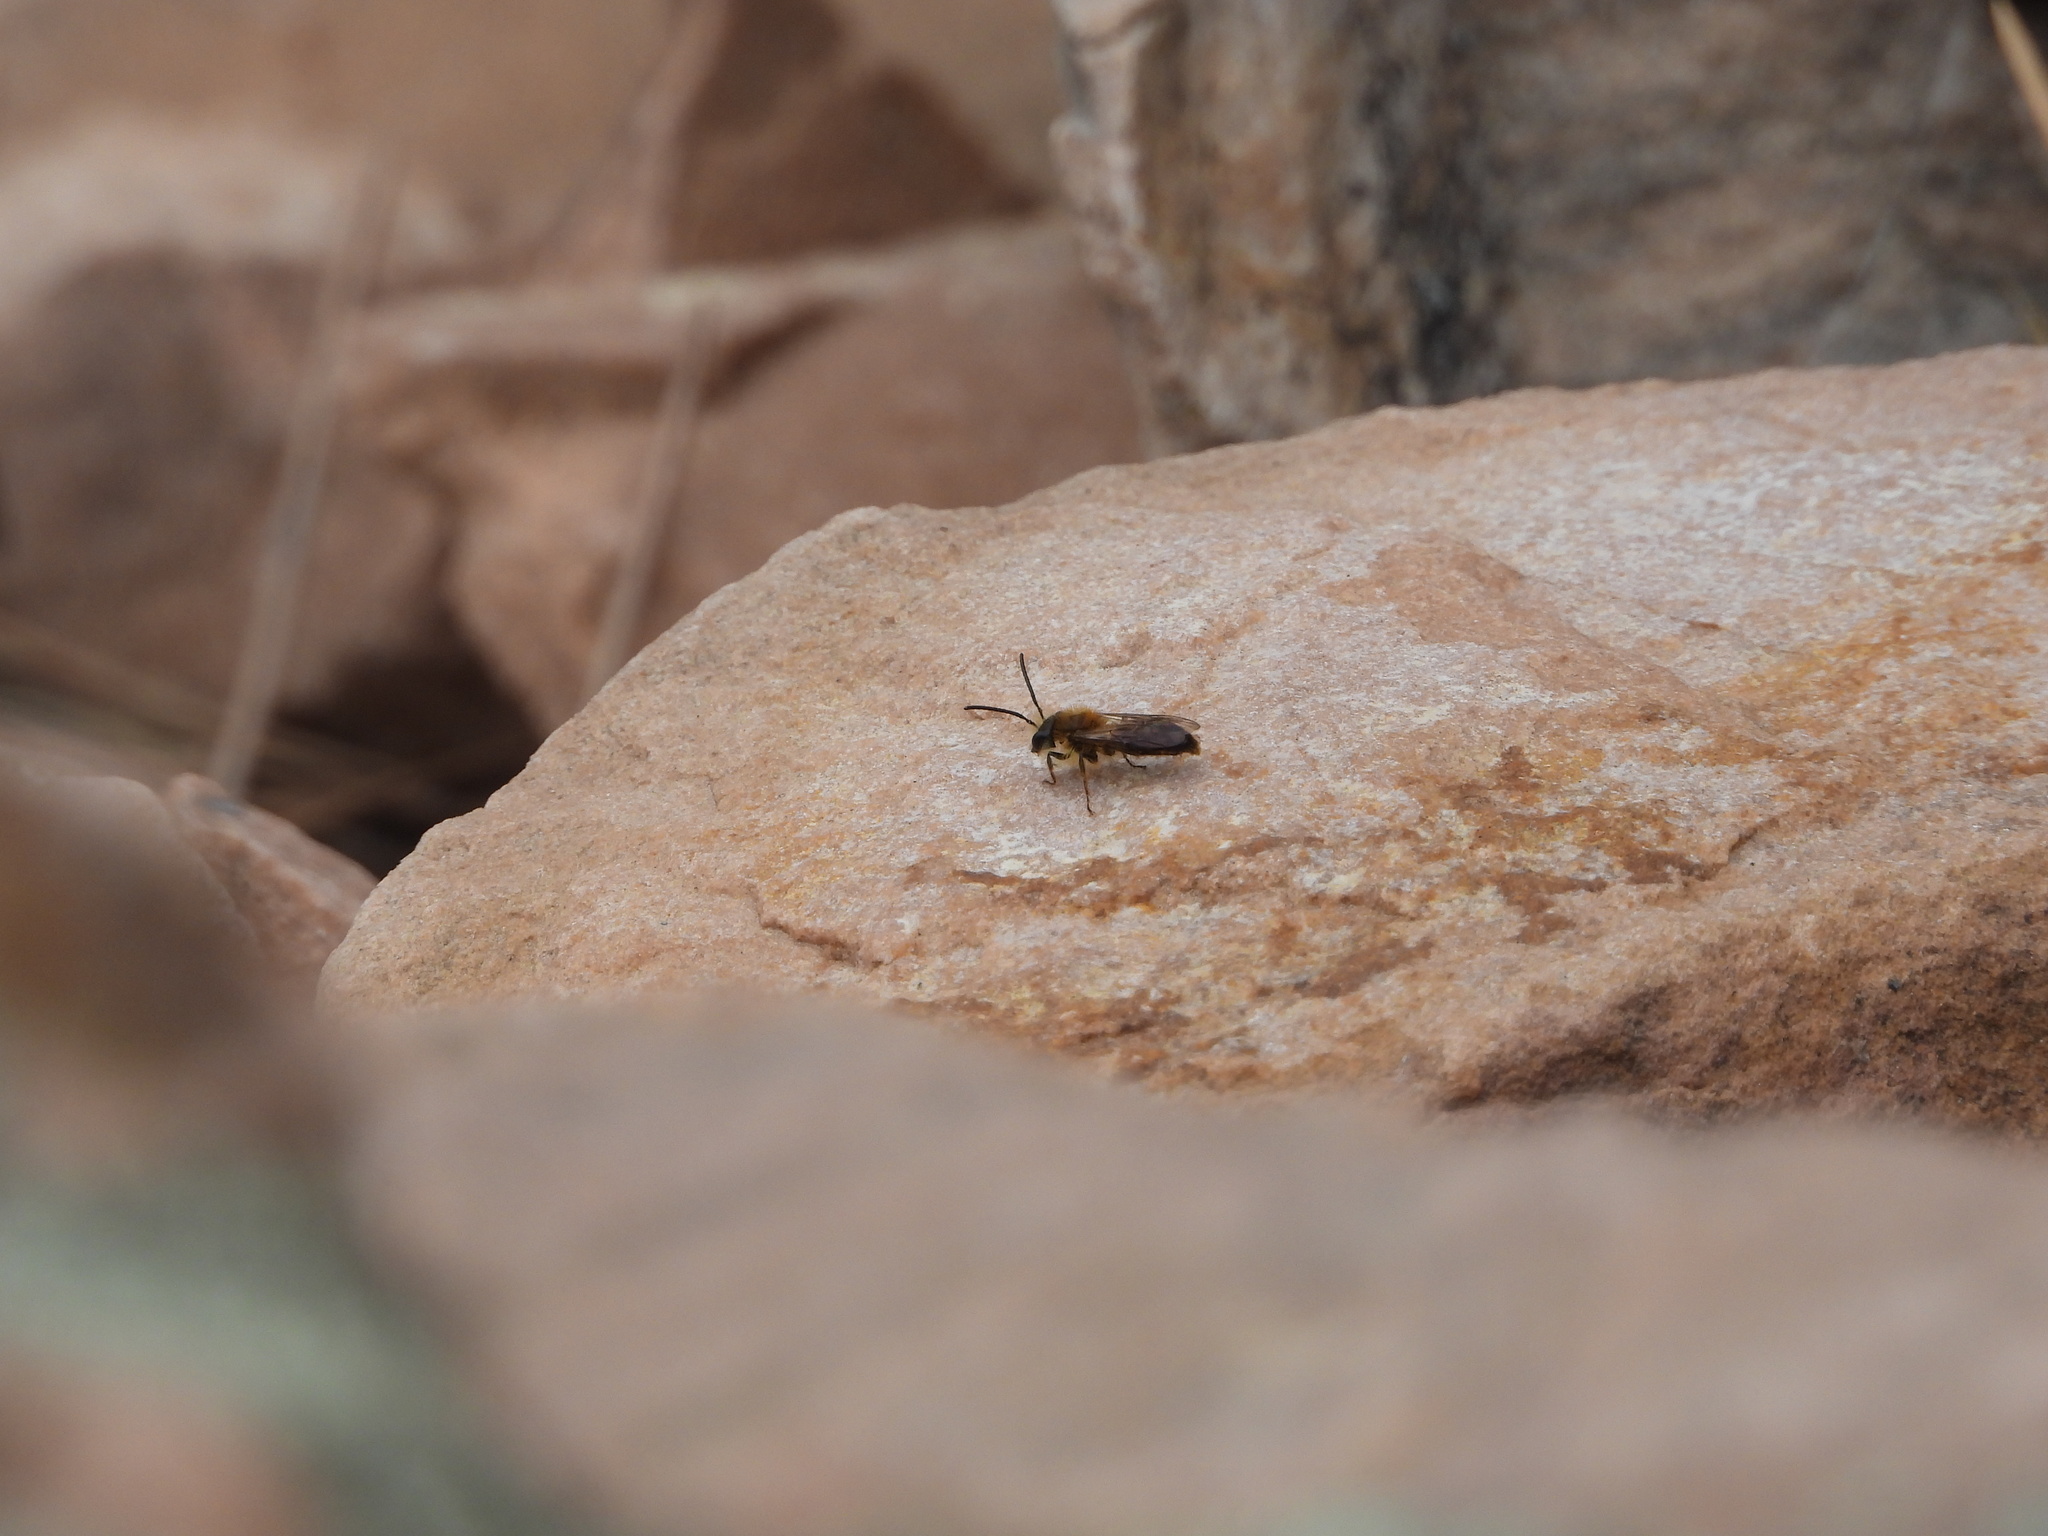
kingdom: Animalia
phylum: Arthropoda
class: Insecta
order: Hymenoptera
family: Andrenidae
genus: Andrena
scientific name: Andrena milwaukeensis
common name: Milwaukee mining bee
